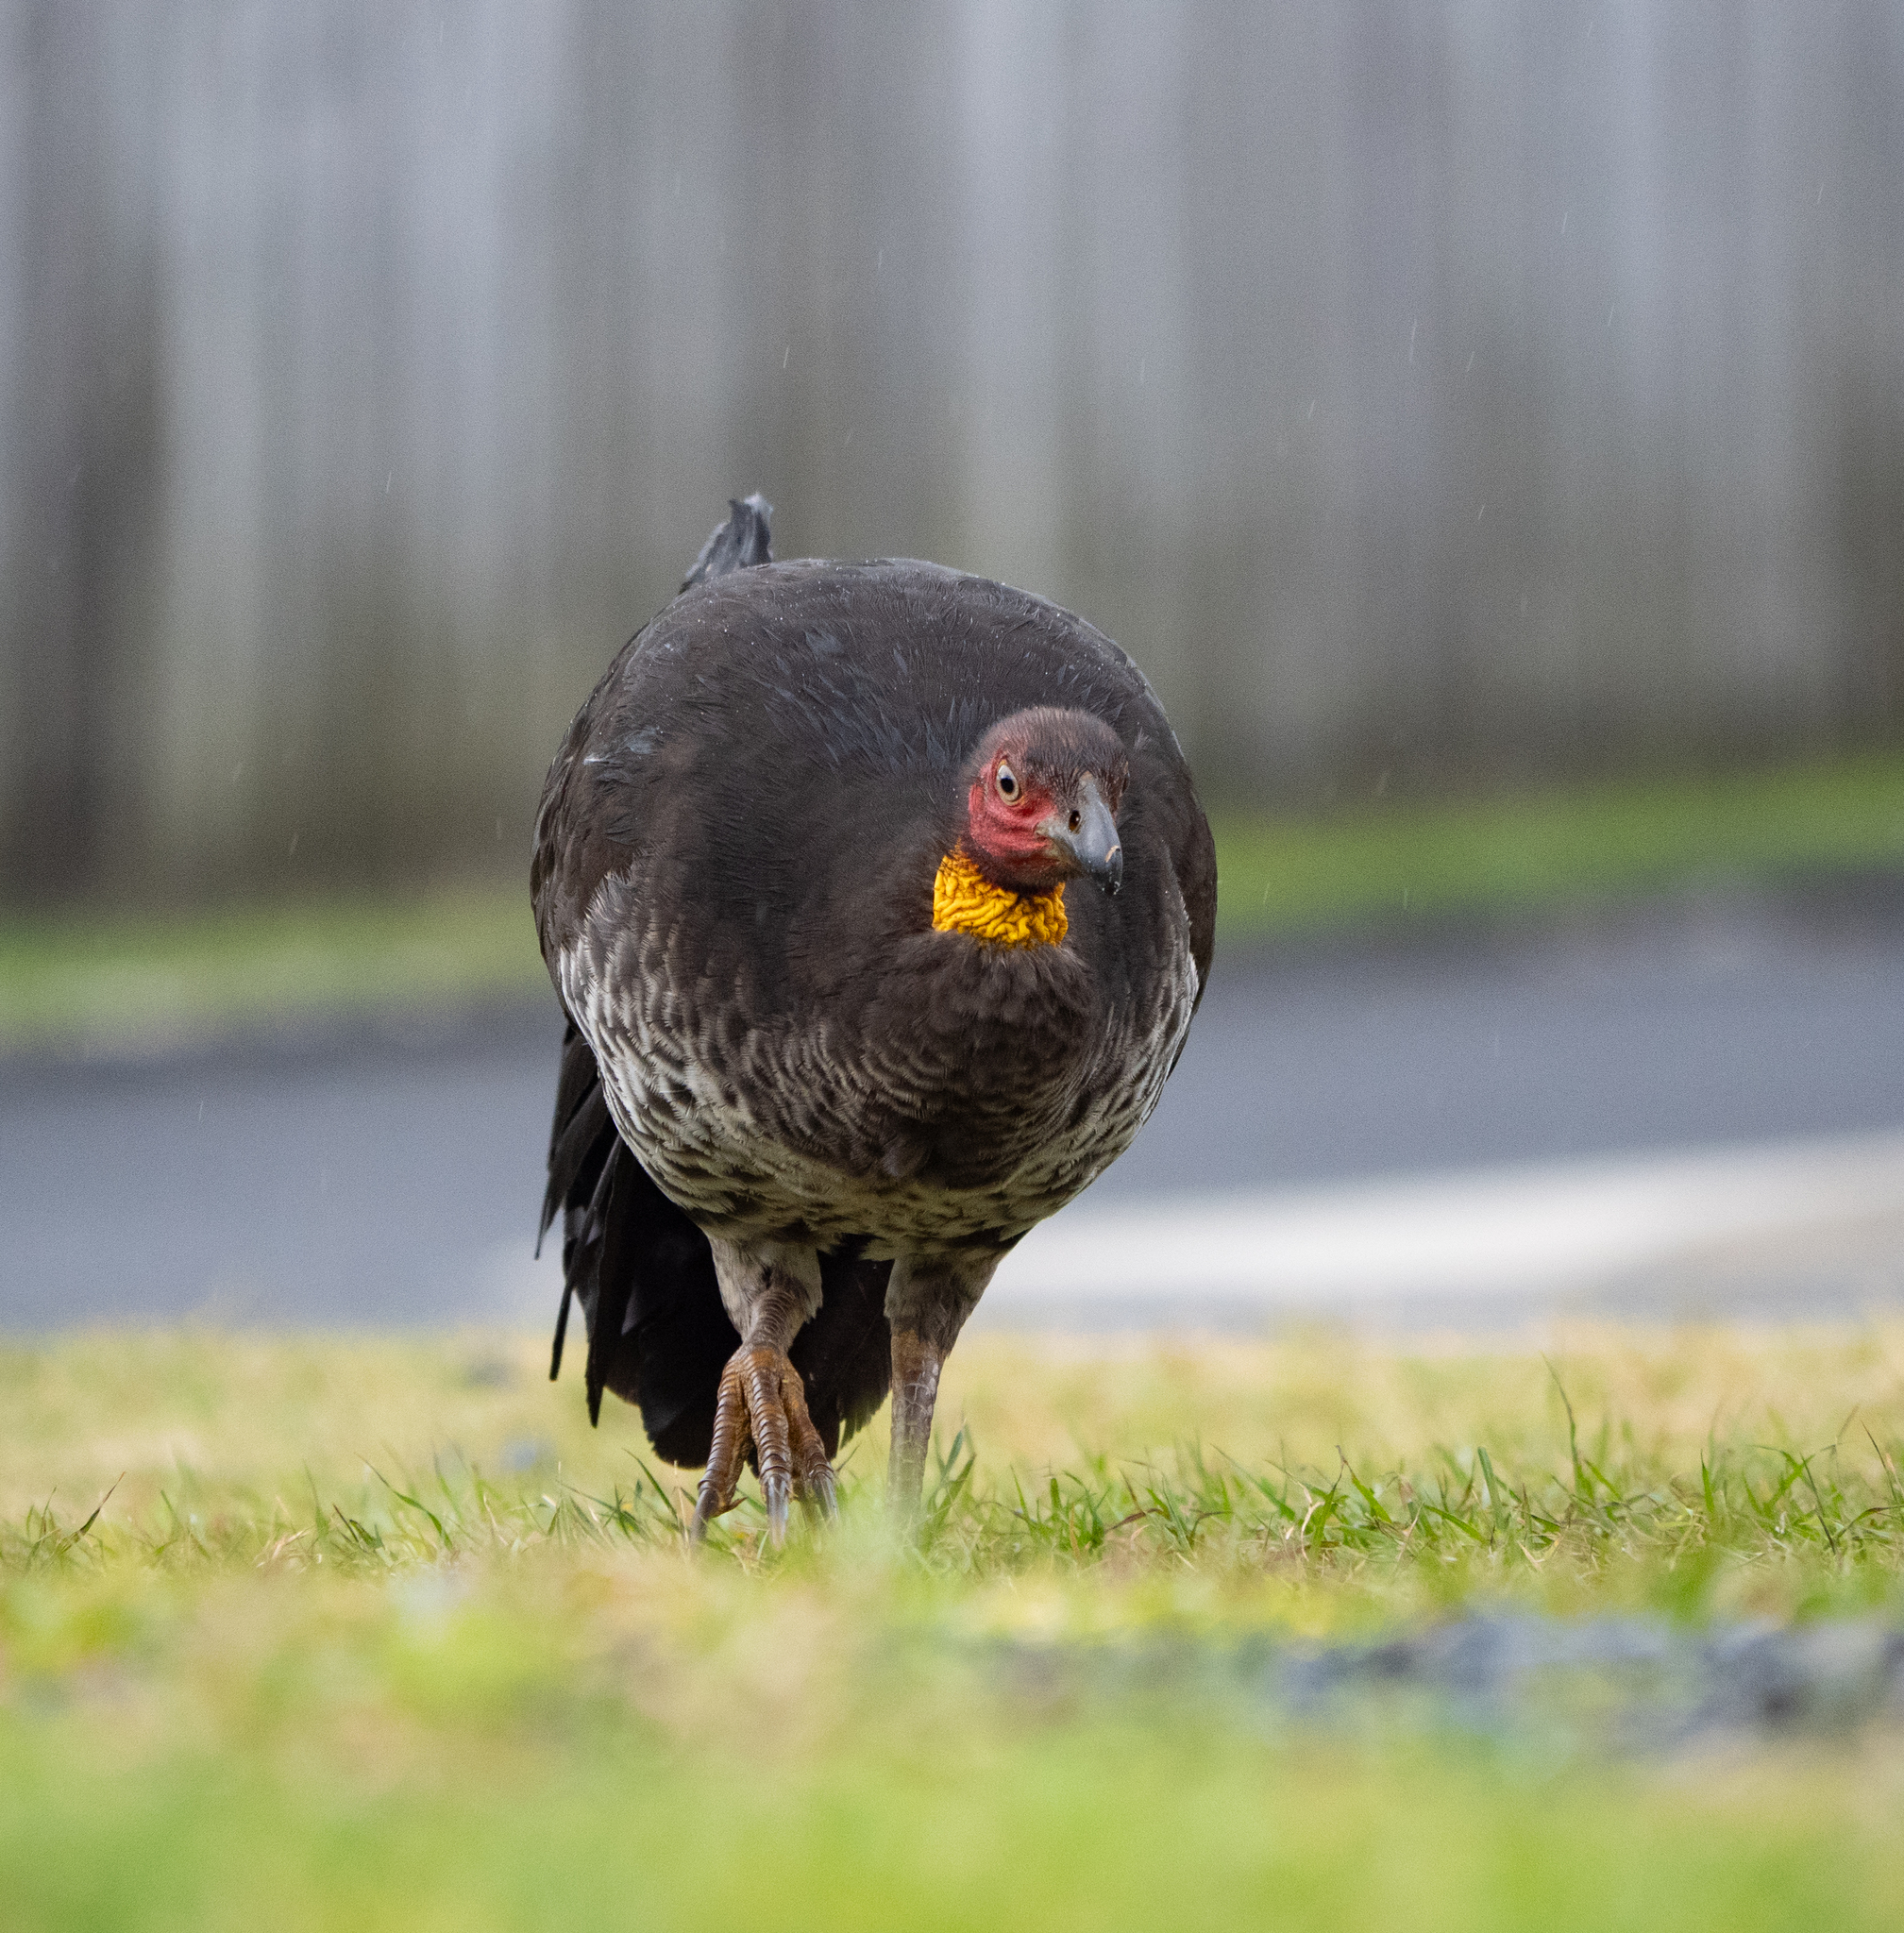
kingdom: Animalia
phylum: Chordata
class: Aves
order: Galliformes
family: Megapodiidae
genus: Alectura
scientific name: Alectura lathami
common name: Australian brushturkey
